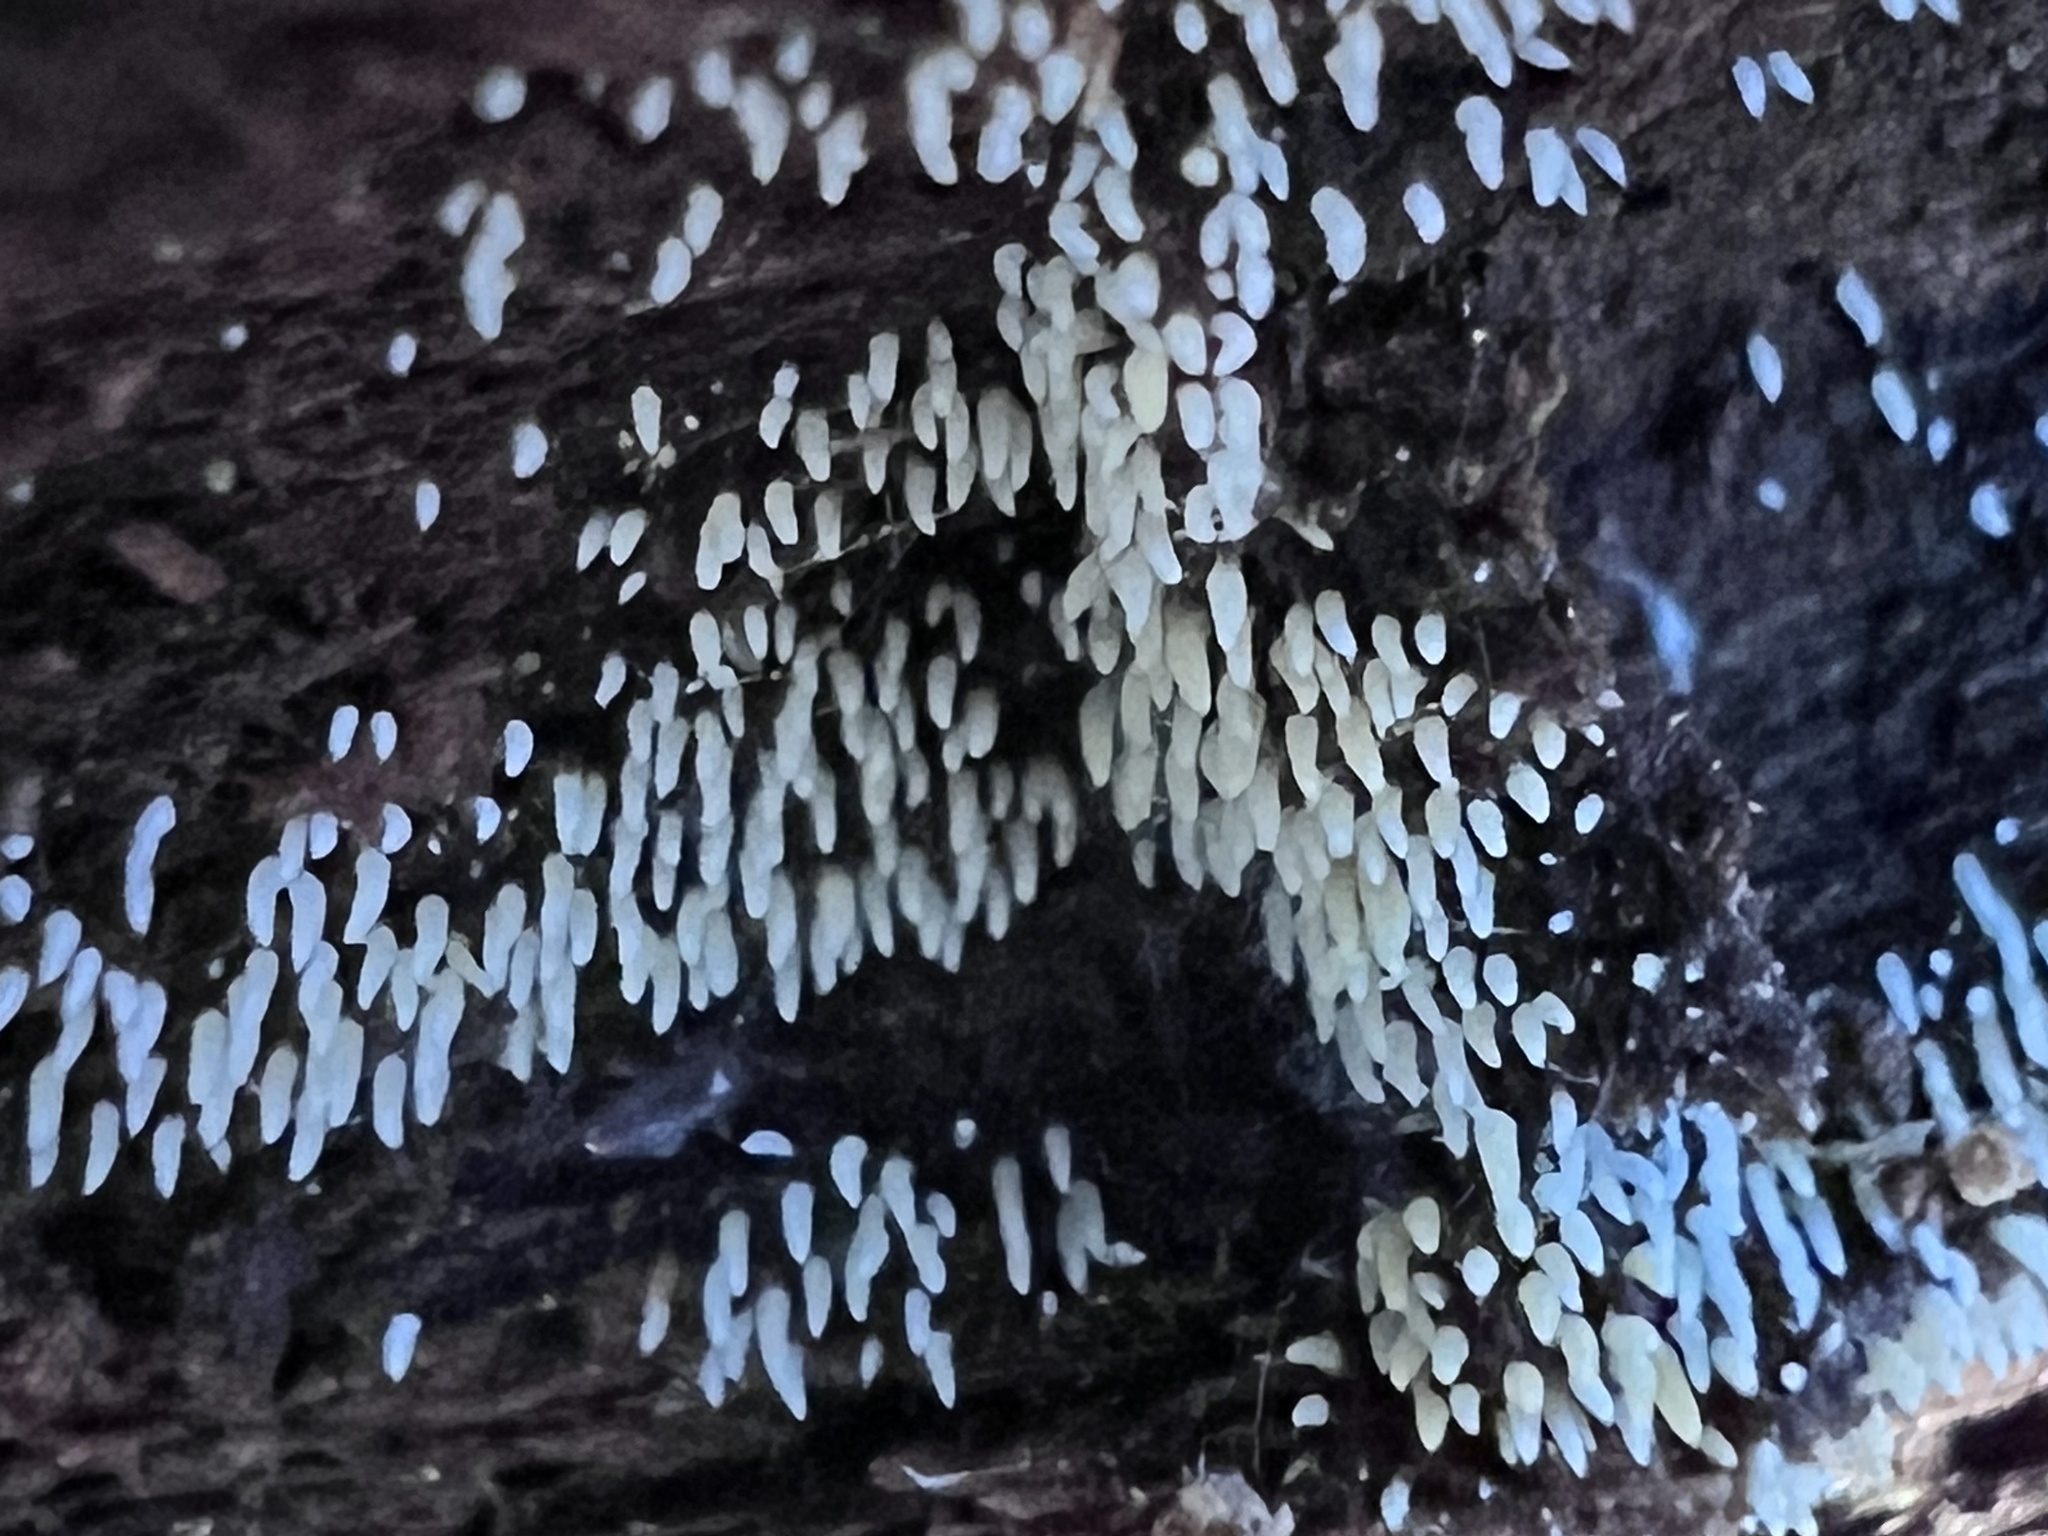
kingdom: Fungi
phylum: Basidiomycota
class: Agaricomycetes
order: Agaricales
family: Clavariaceae
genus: Mucronella
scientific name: Mucronella calva
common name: Swarming spine
